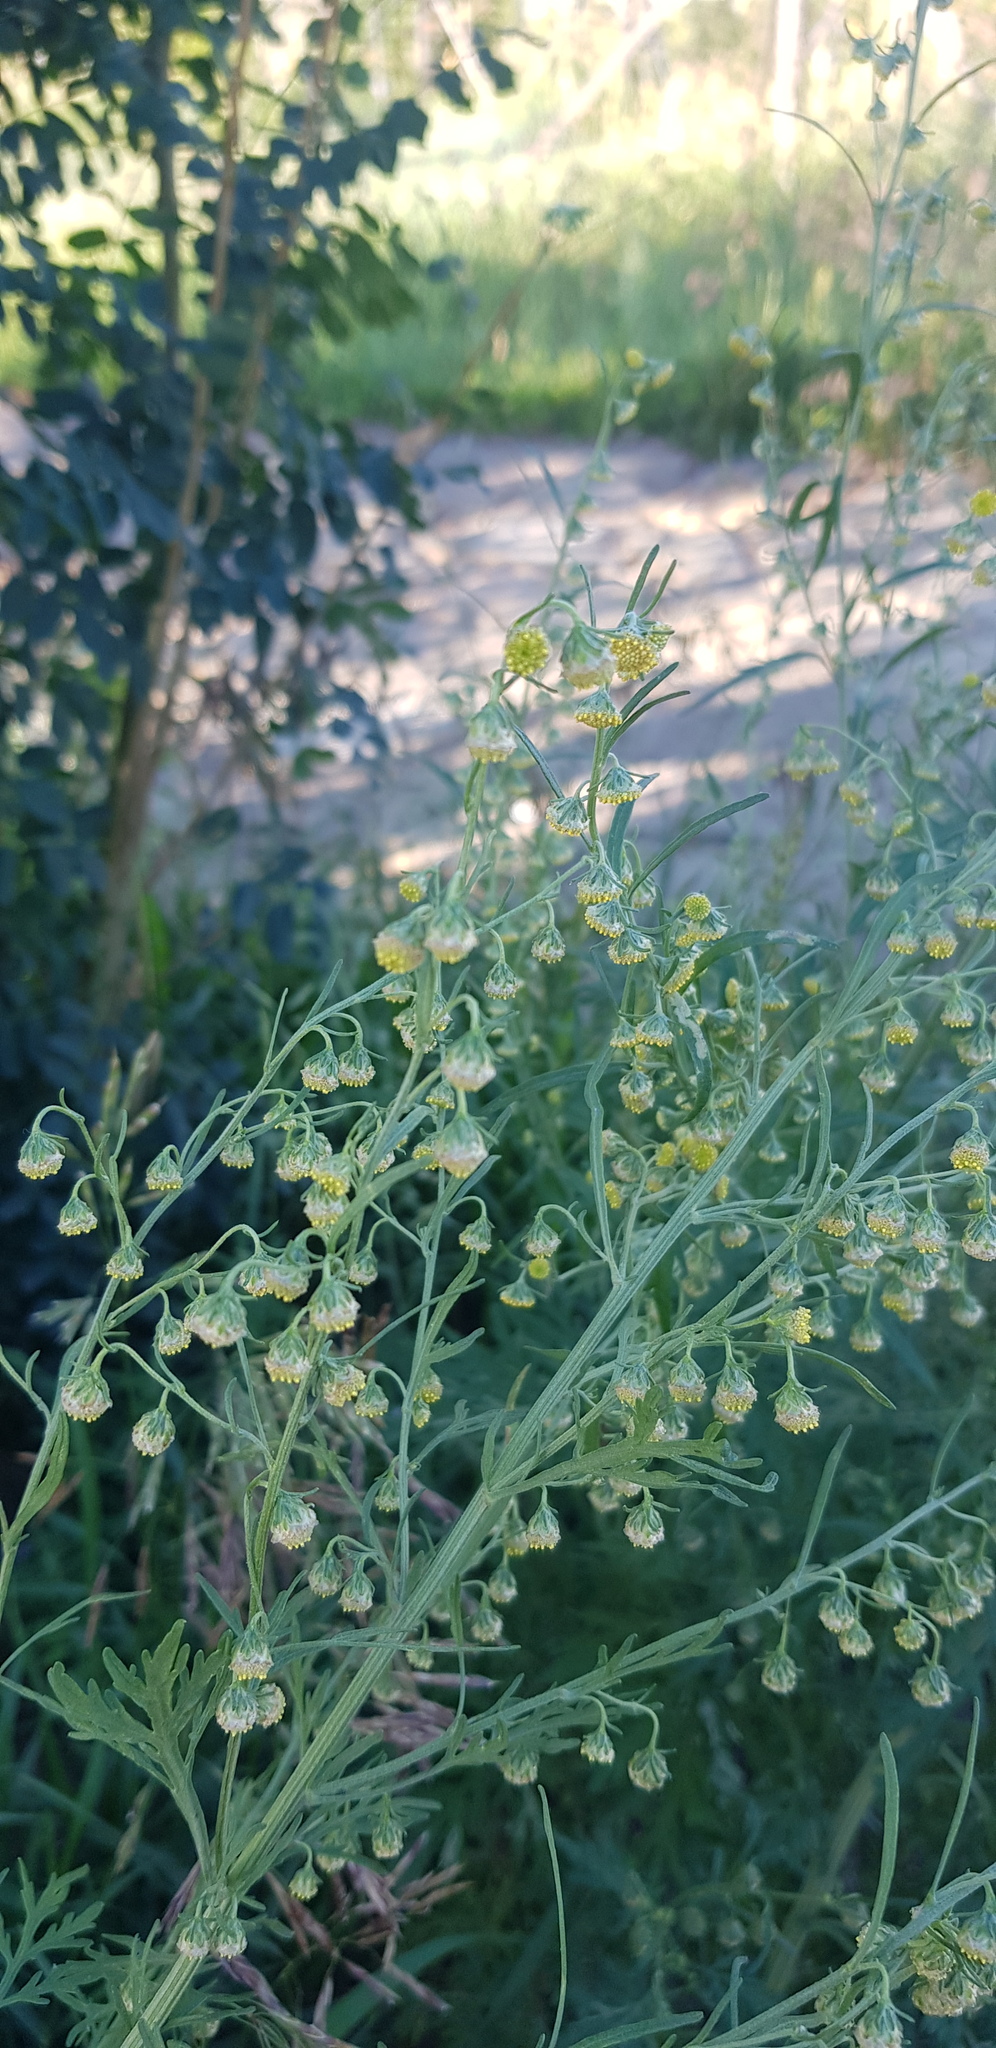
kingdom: Plantae
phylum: Tracheophyta
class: Magnoliopsida
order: Asterales
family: Asteraceae
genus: Artemisia
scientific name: Artemisia macrocephala
